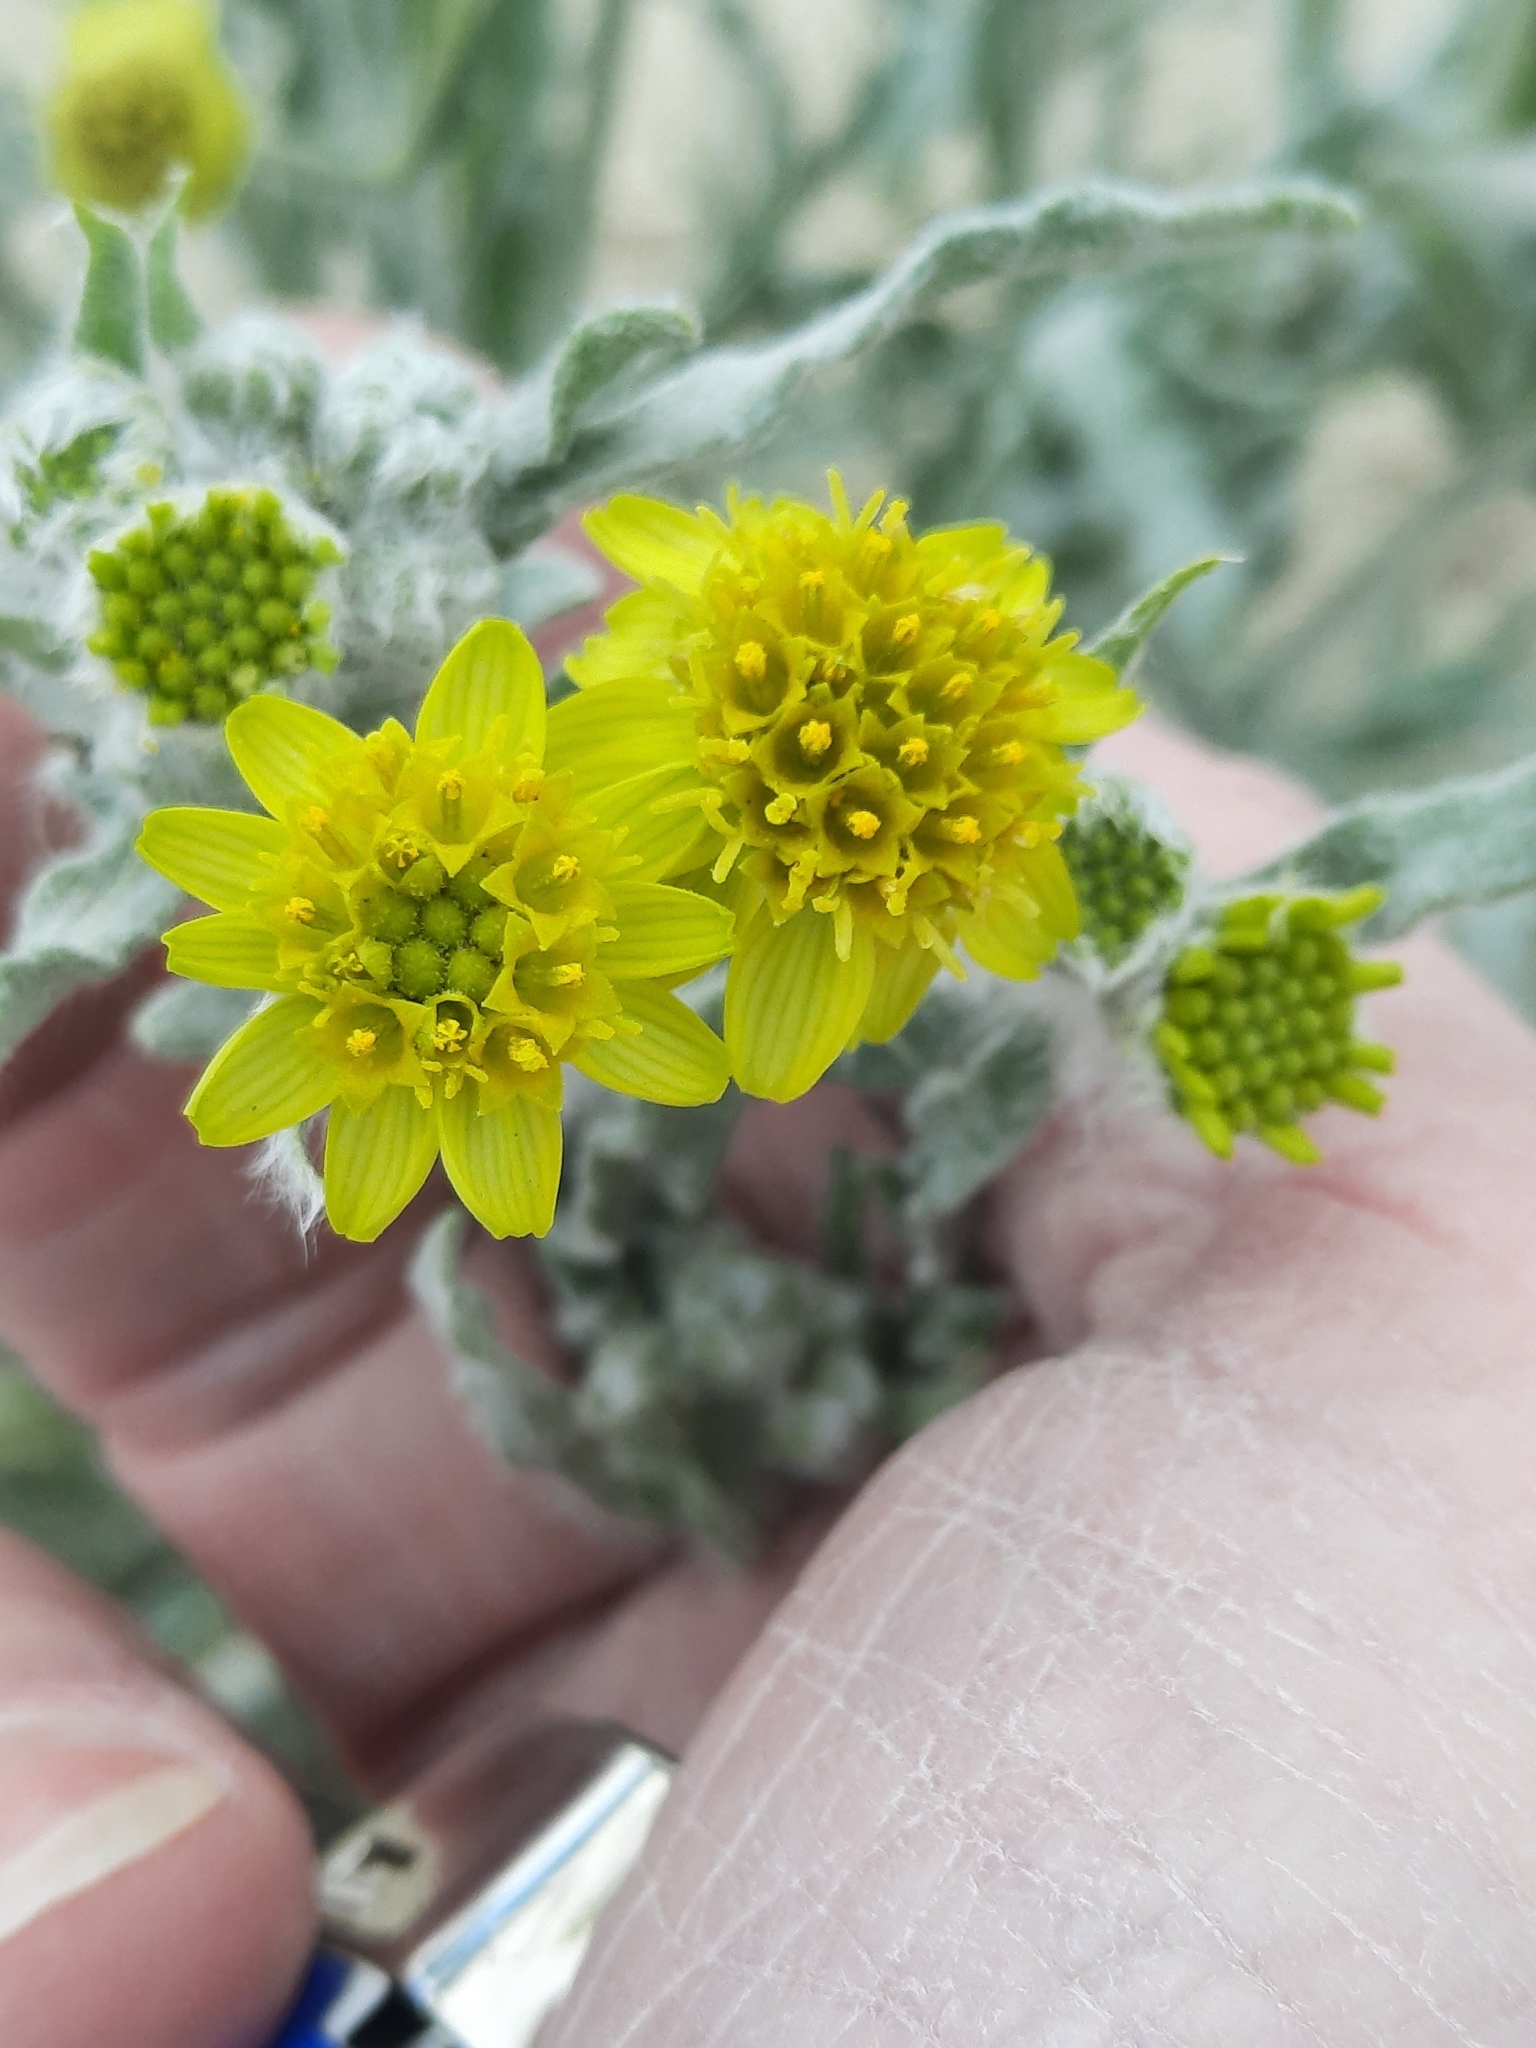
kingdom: Plantae
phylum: Tracheophyta
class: Magnoliopsida
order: Asterales
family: Asteraceae
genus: Baileya
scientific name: Baileya pauciradiata
